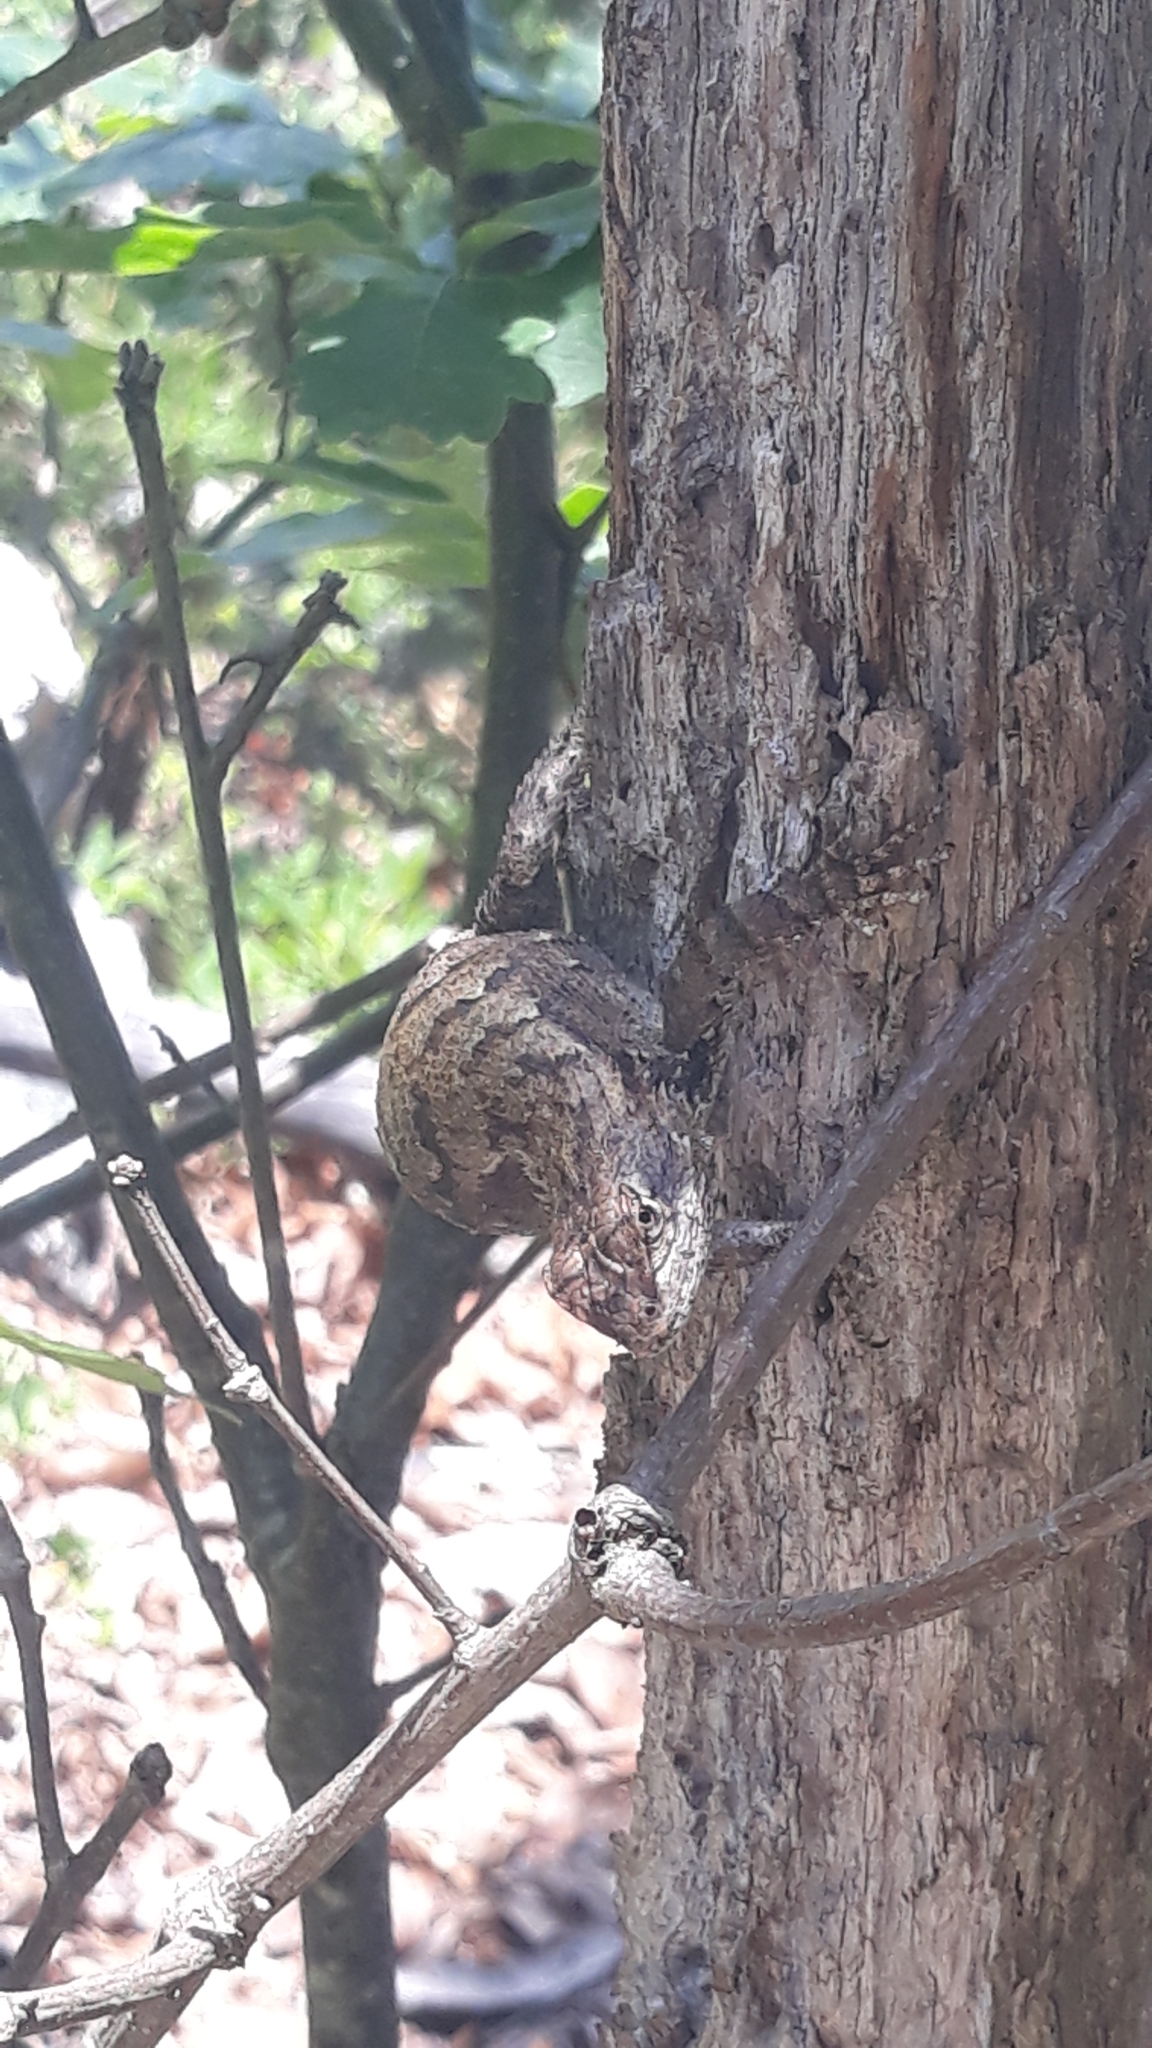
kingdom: Animalia
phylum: Chordata
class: Squamata
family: Phrynosomatidae
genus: Sceloporus
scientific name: Sceloporus undulatus
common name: Eastern fence lizard
